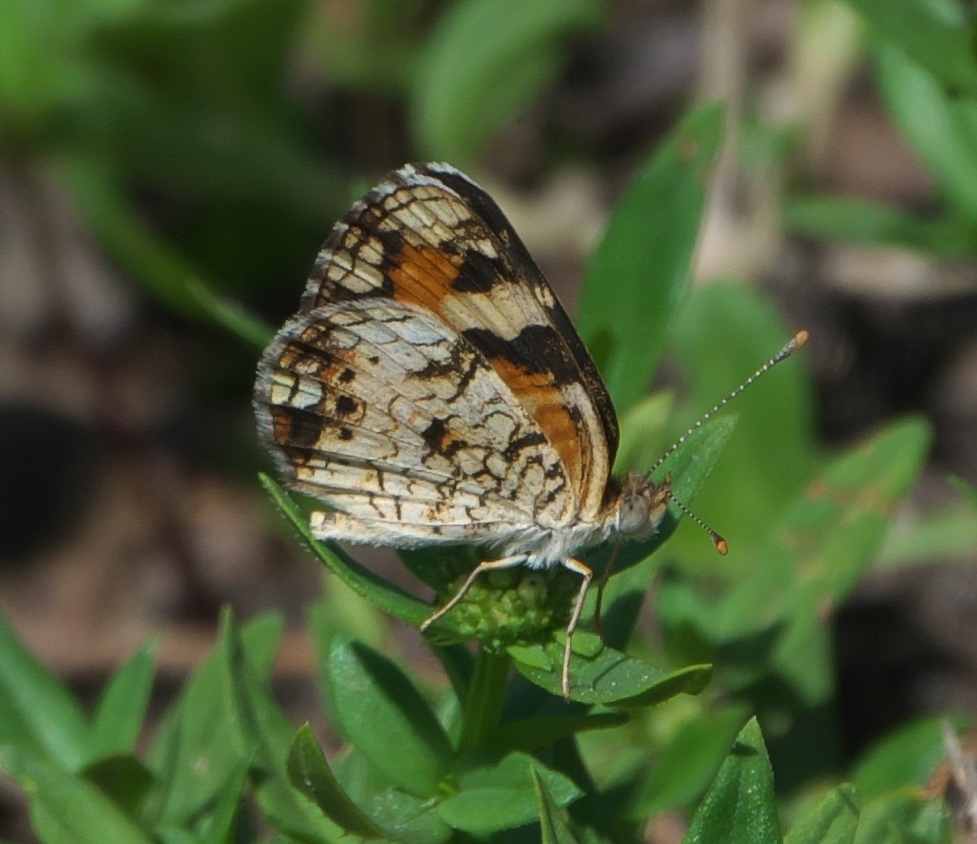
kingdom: Animalia
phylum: Arthropoda
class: Insecta
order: Lepidoptera
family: Nymphalidae
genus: Phyciodes
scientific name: Phyciodes phaon
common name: Phaon crescent
